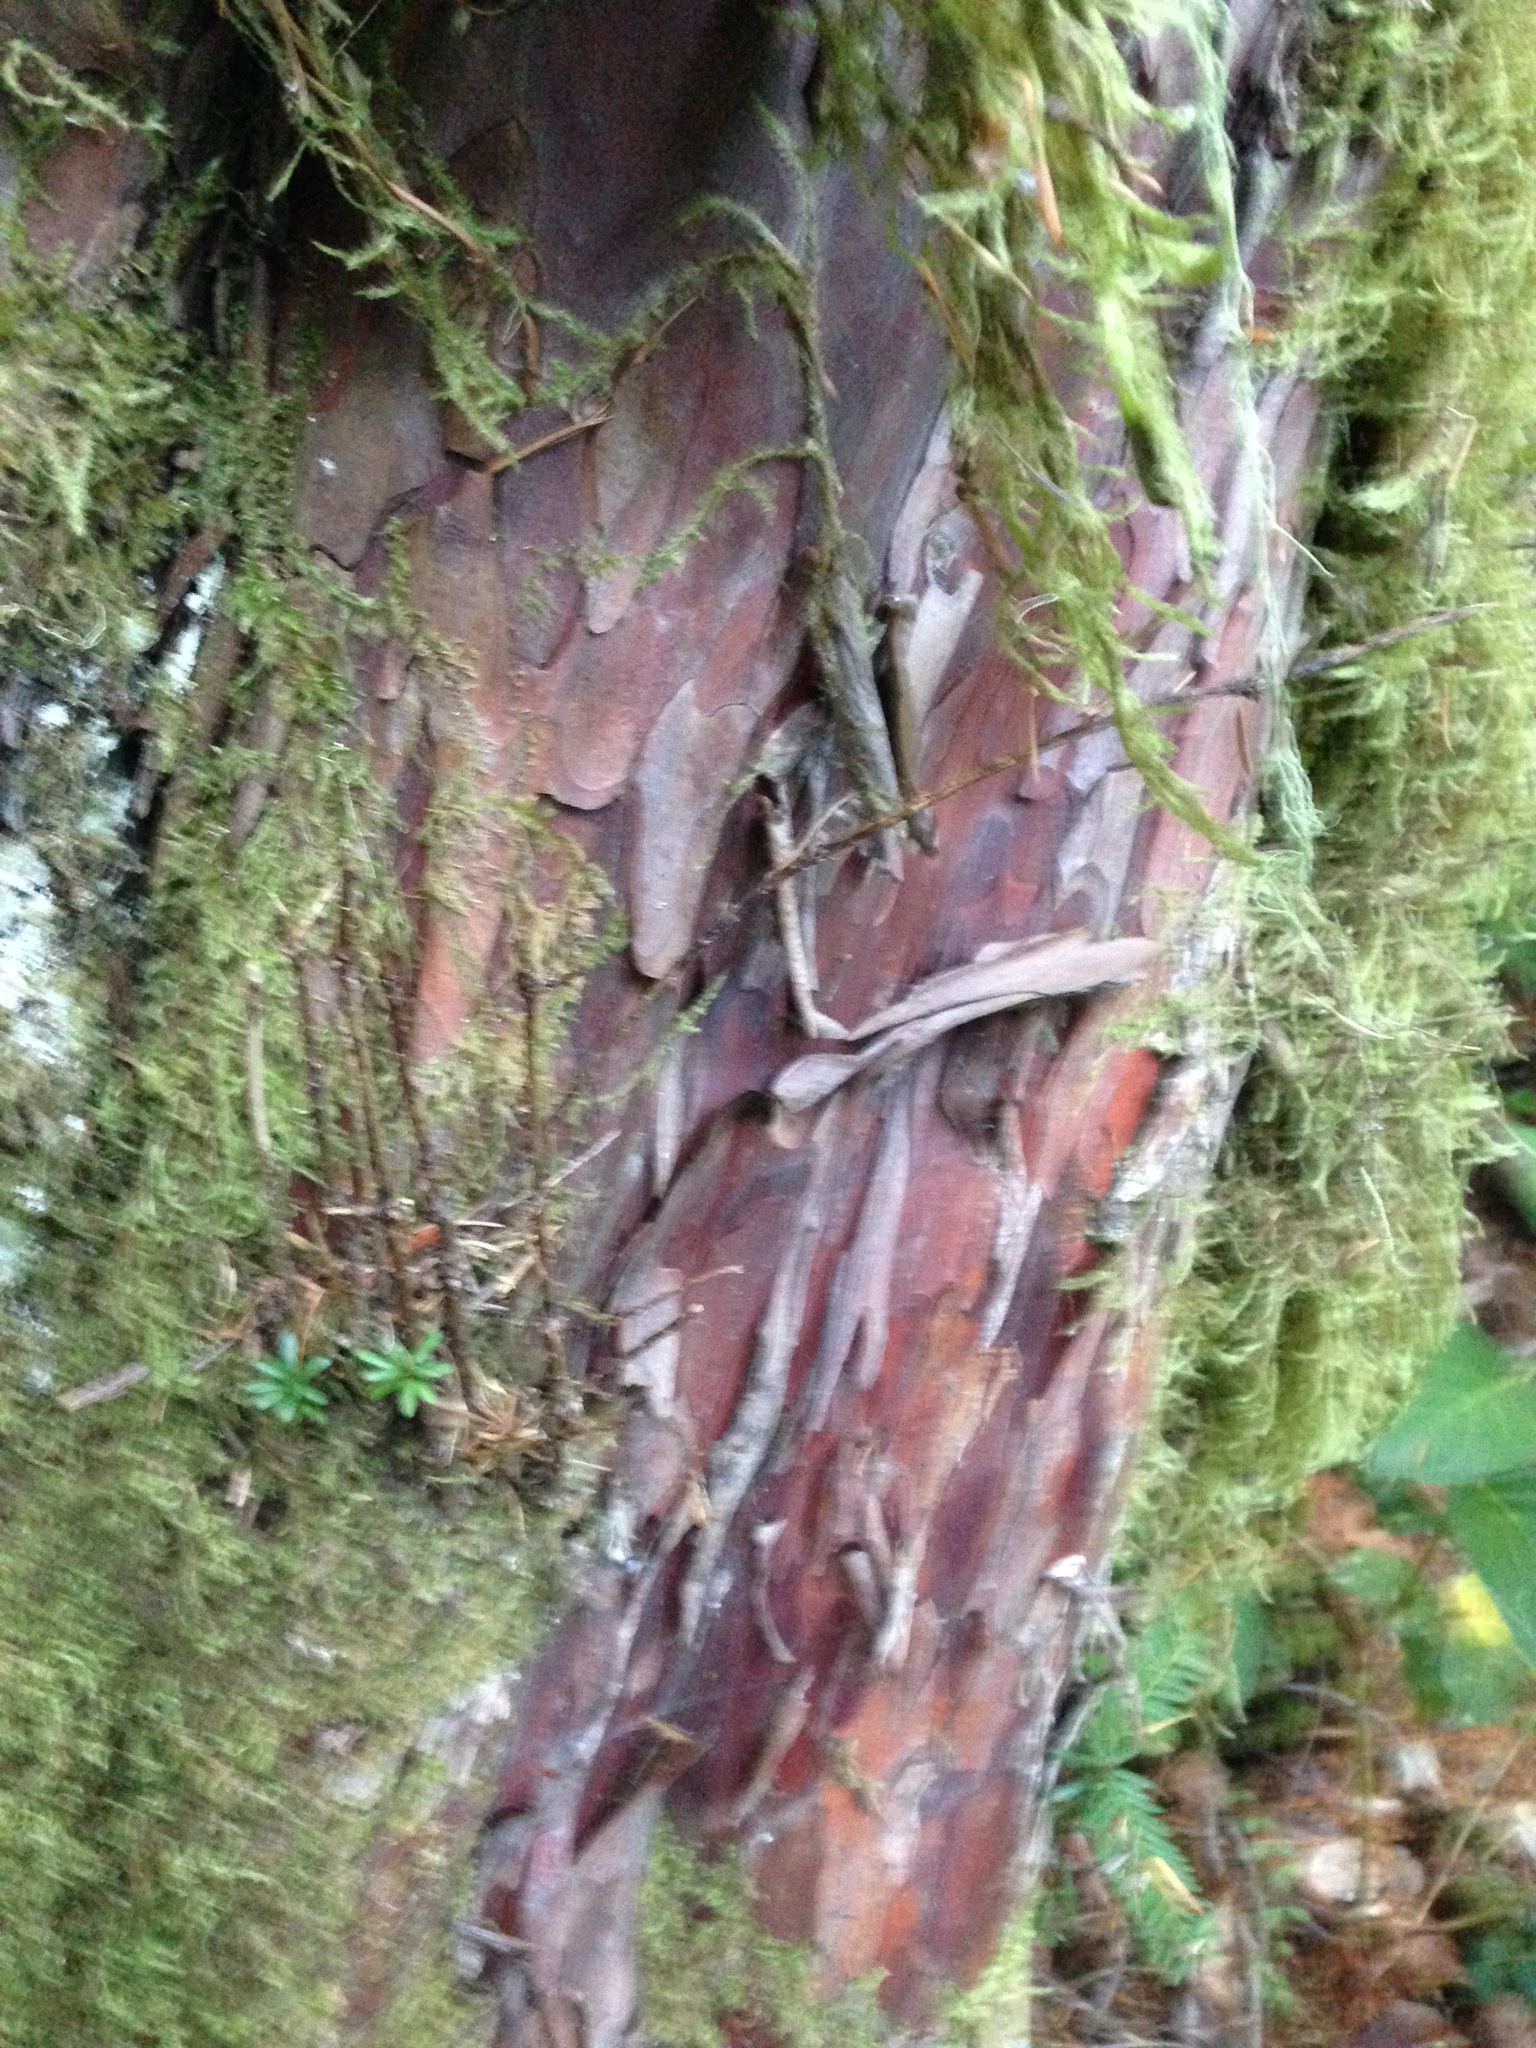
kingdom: Plantae
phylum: Tracheophyta
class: Pinopsida
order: Pinales
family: Taxaceae
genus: Taxus
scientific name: Taxus brevifolia
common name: Pacific yew
